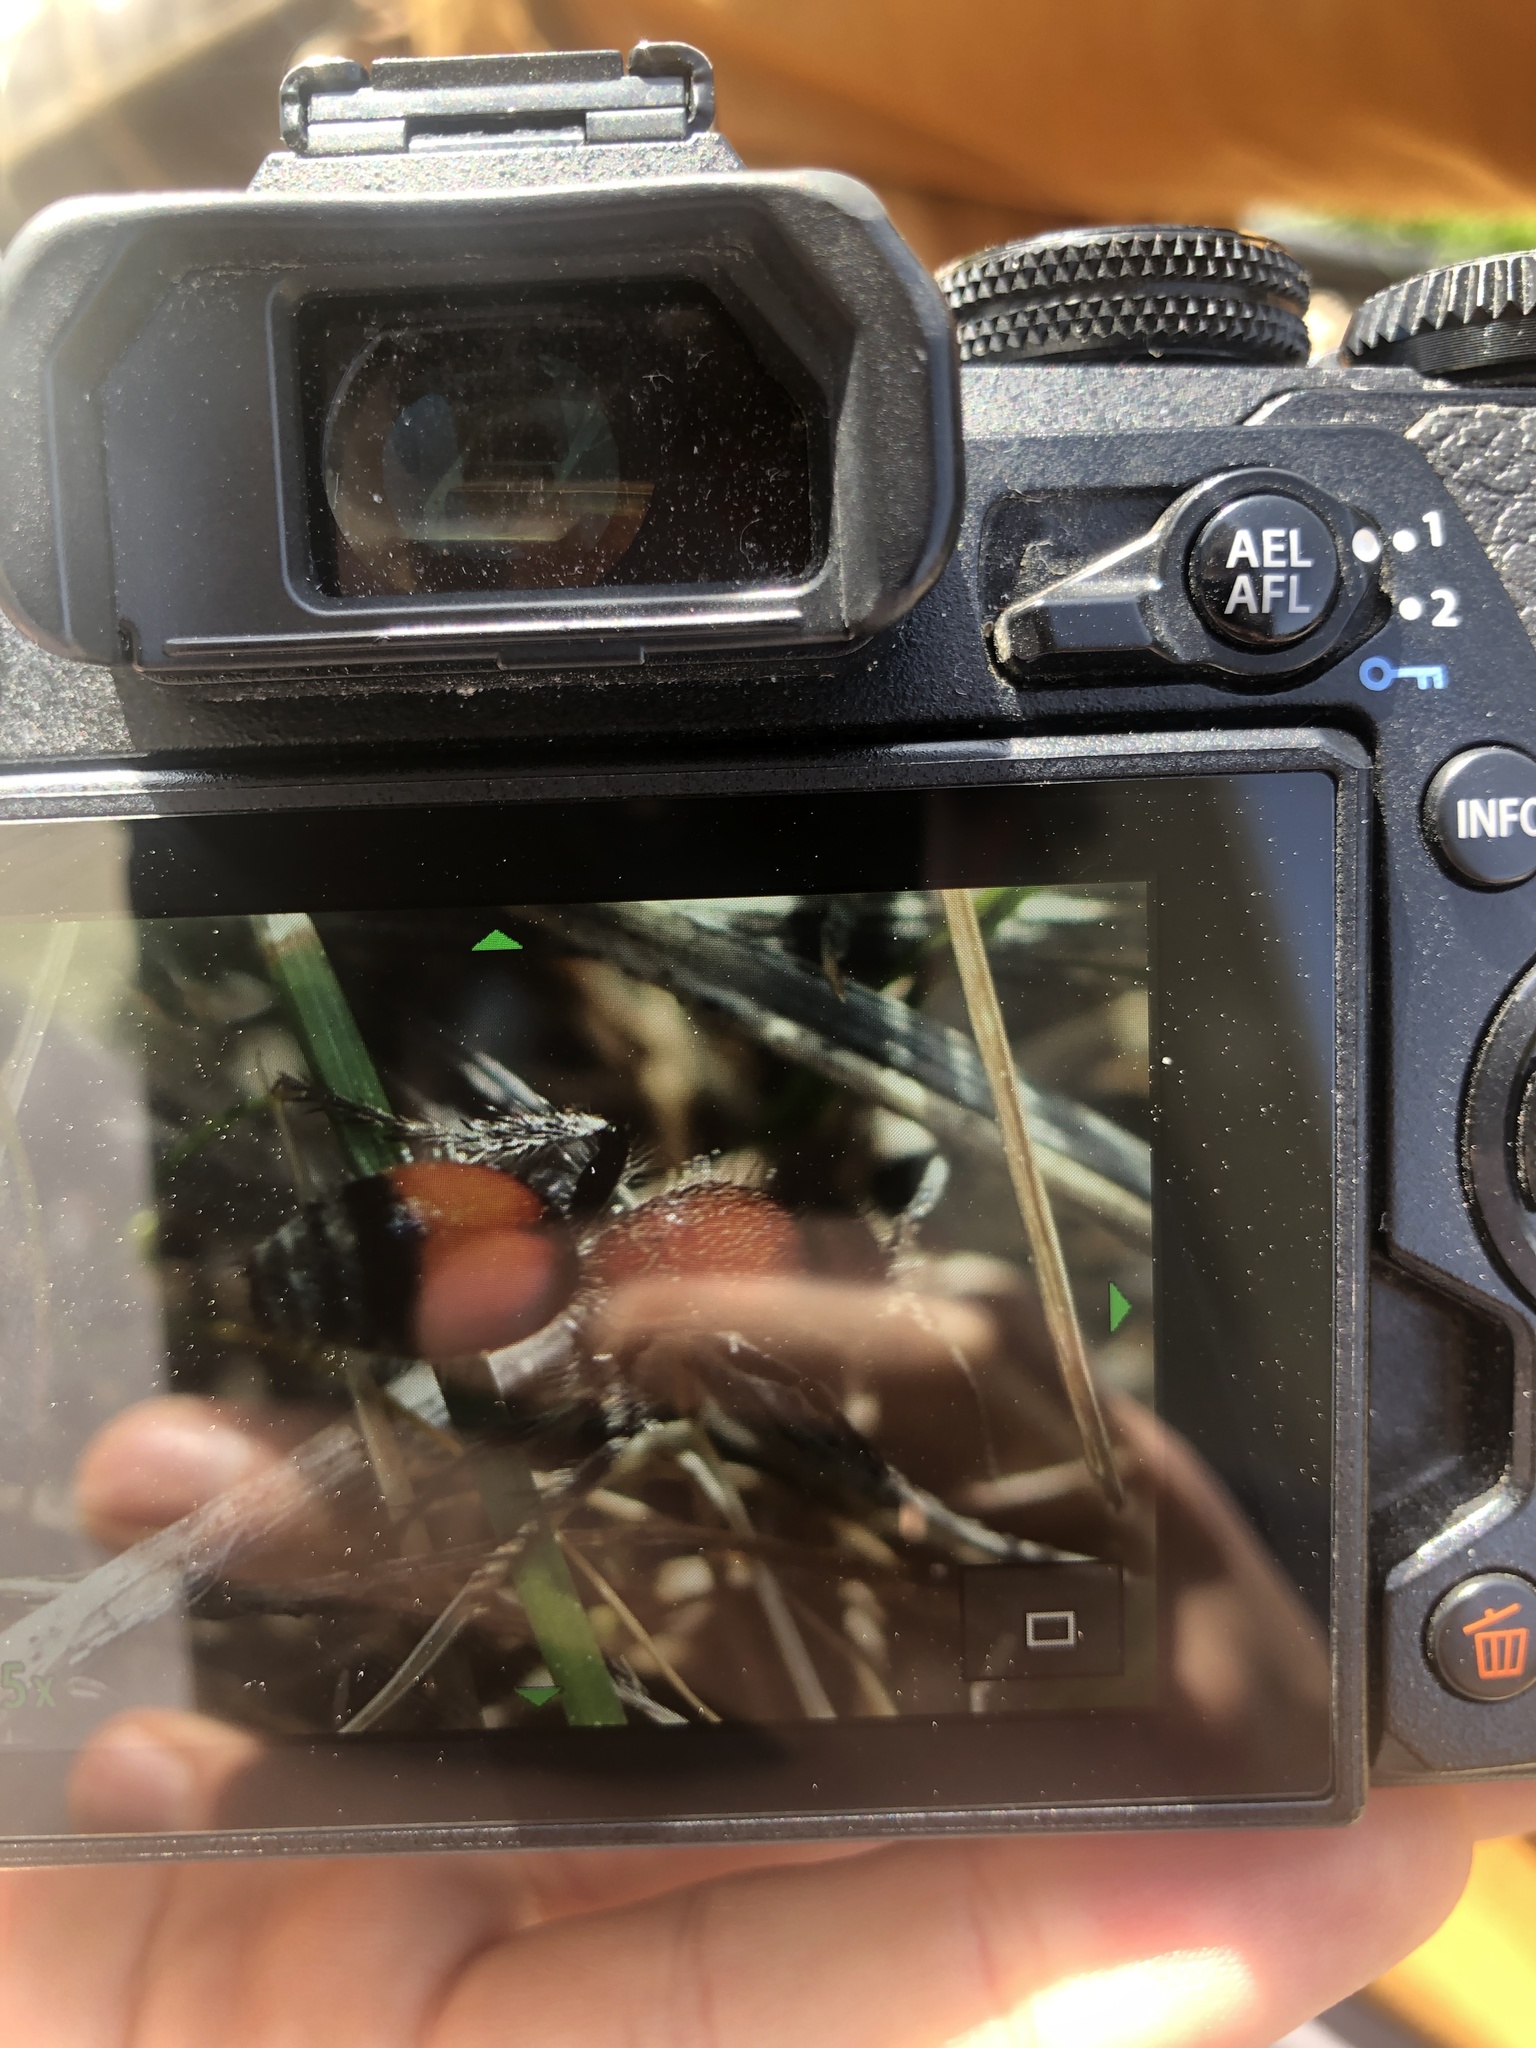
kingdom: Animalia
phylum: Arthropoda
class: Insecta
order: Hymenoptera
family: Mutillidae
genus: Dasymutilla
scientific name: Dasymutilla
